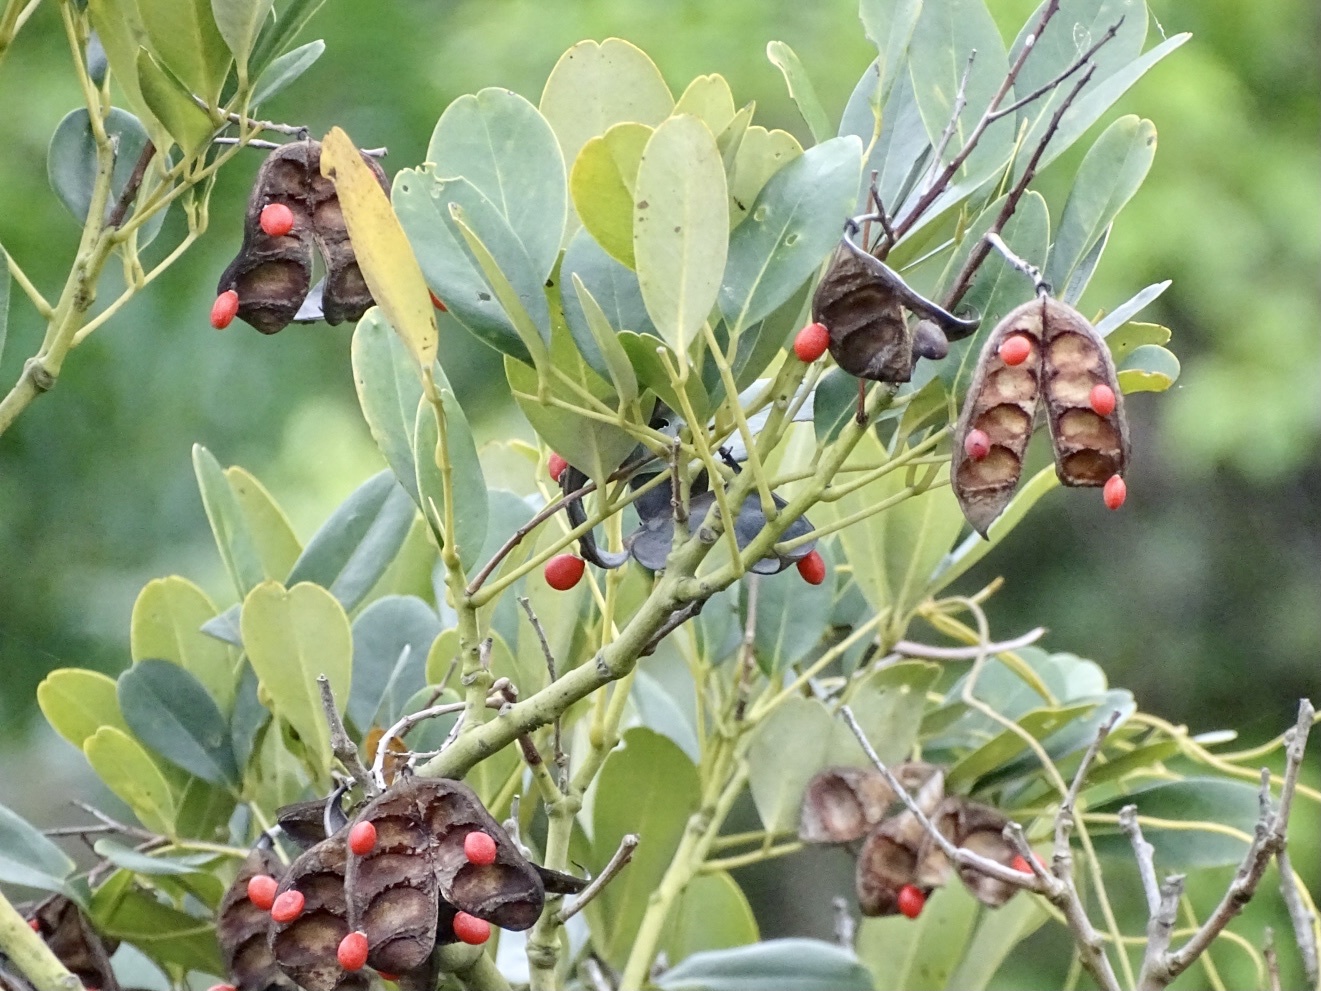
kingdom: Plantae
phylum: Tracheophyta
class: Magnoliopsida
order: Fabales
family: Fabaceae
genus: Ormosia
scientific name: Ormosia emarginata
